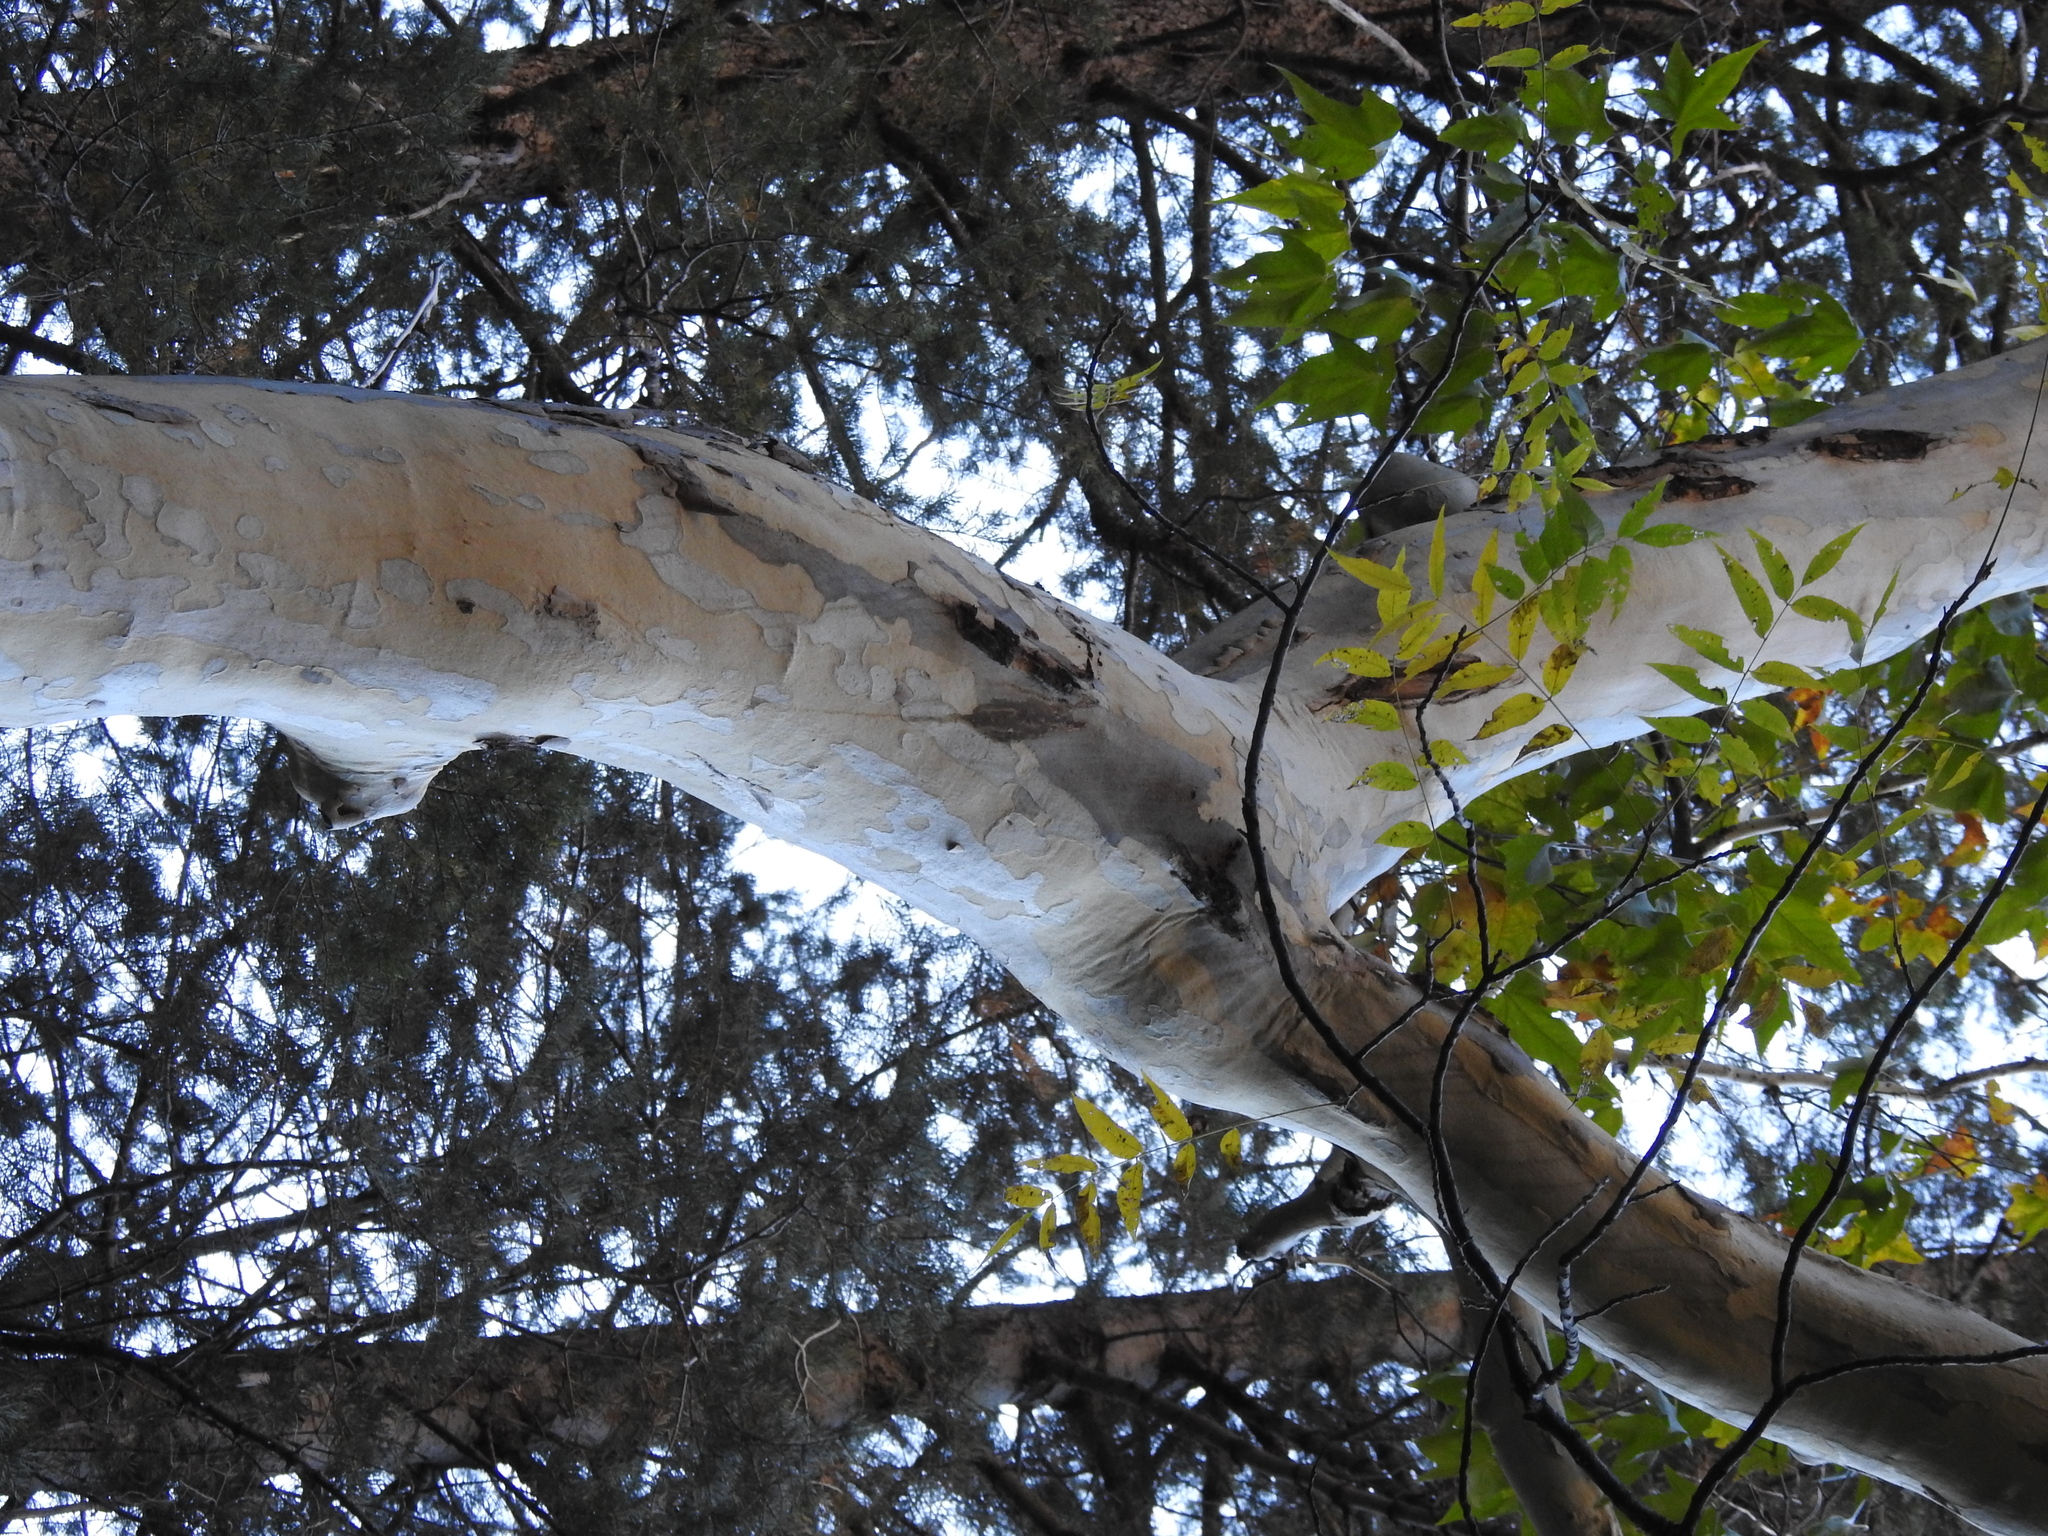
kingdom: Plantae
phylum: Tracheophyta
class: Magnoliopsida
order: Proteales
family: Platanaceae
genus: Platanus
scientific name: Platanus wrightii
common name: Arizona sycamore
